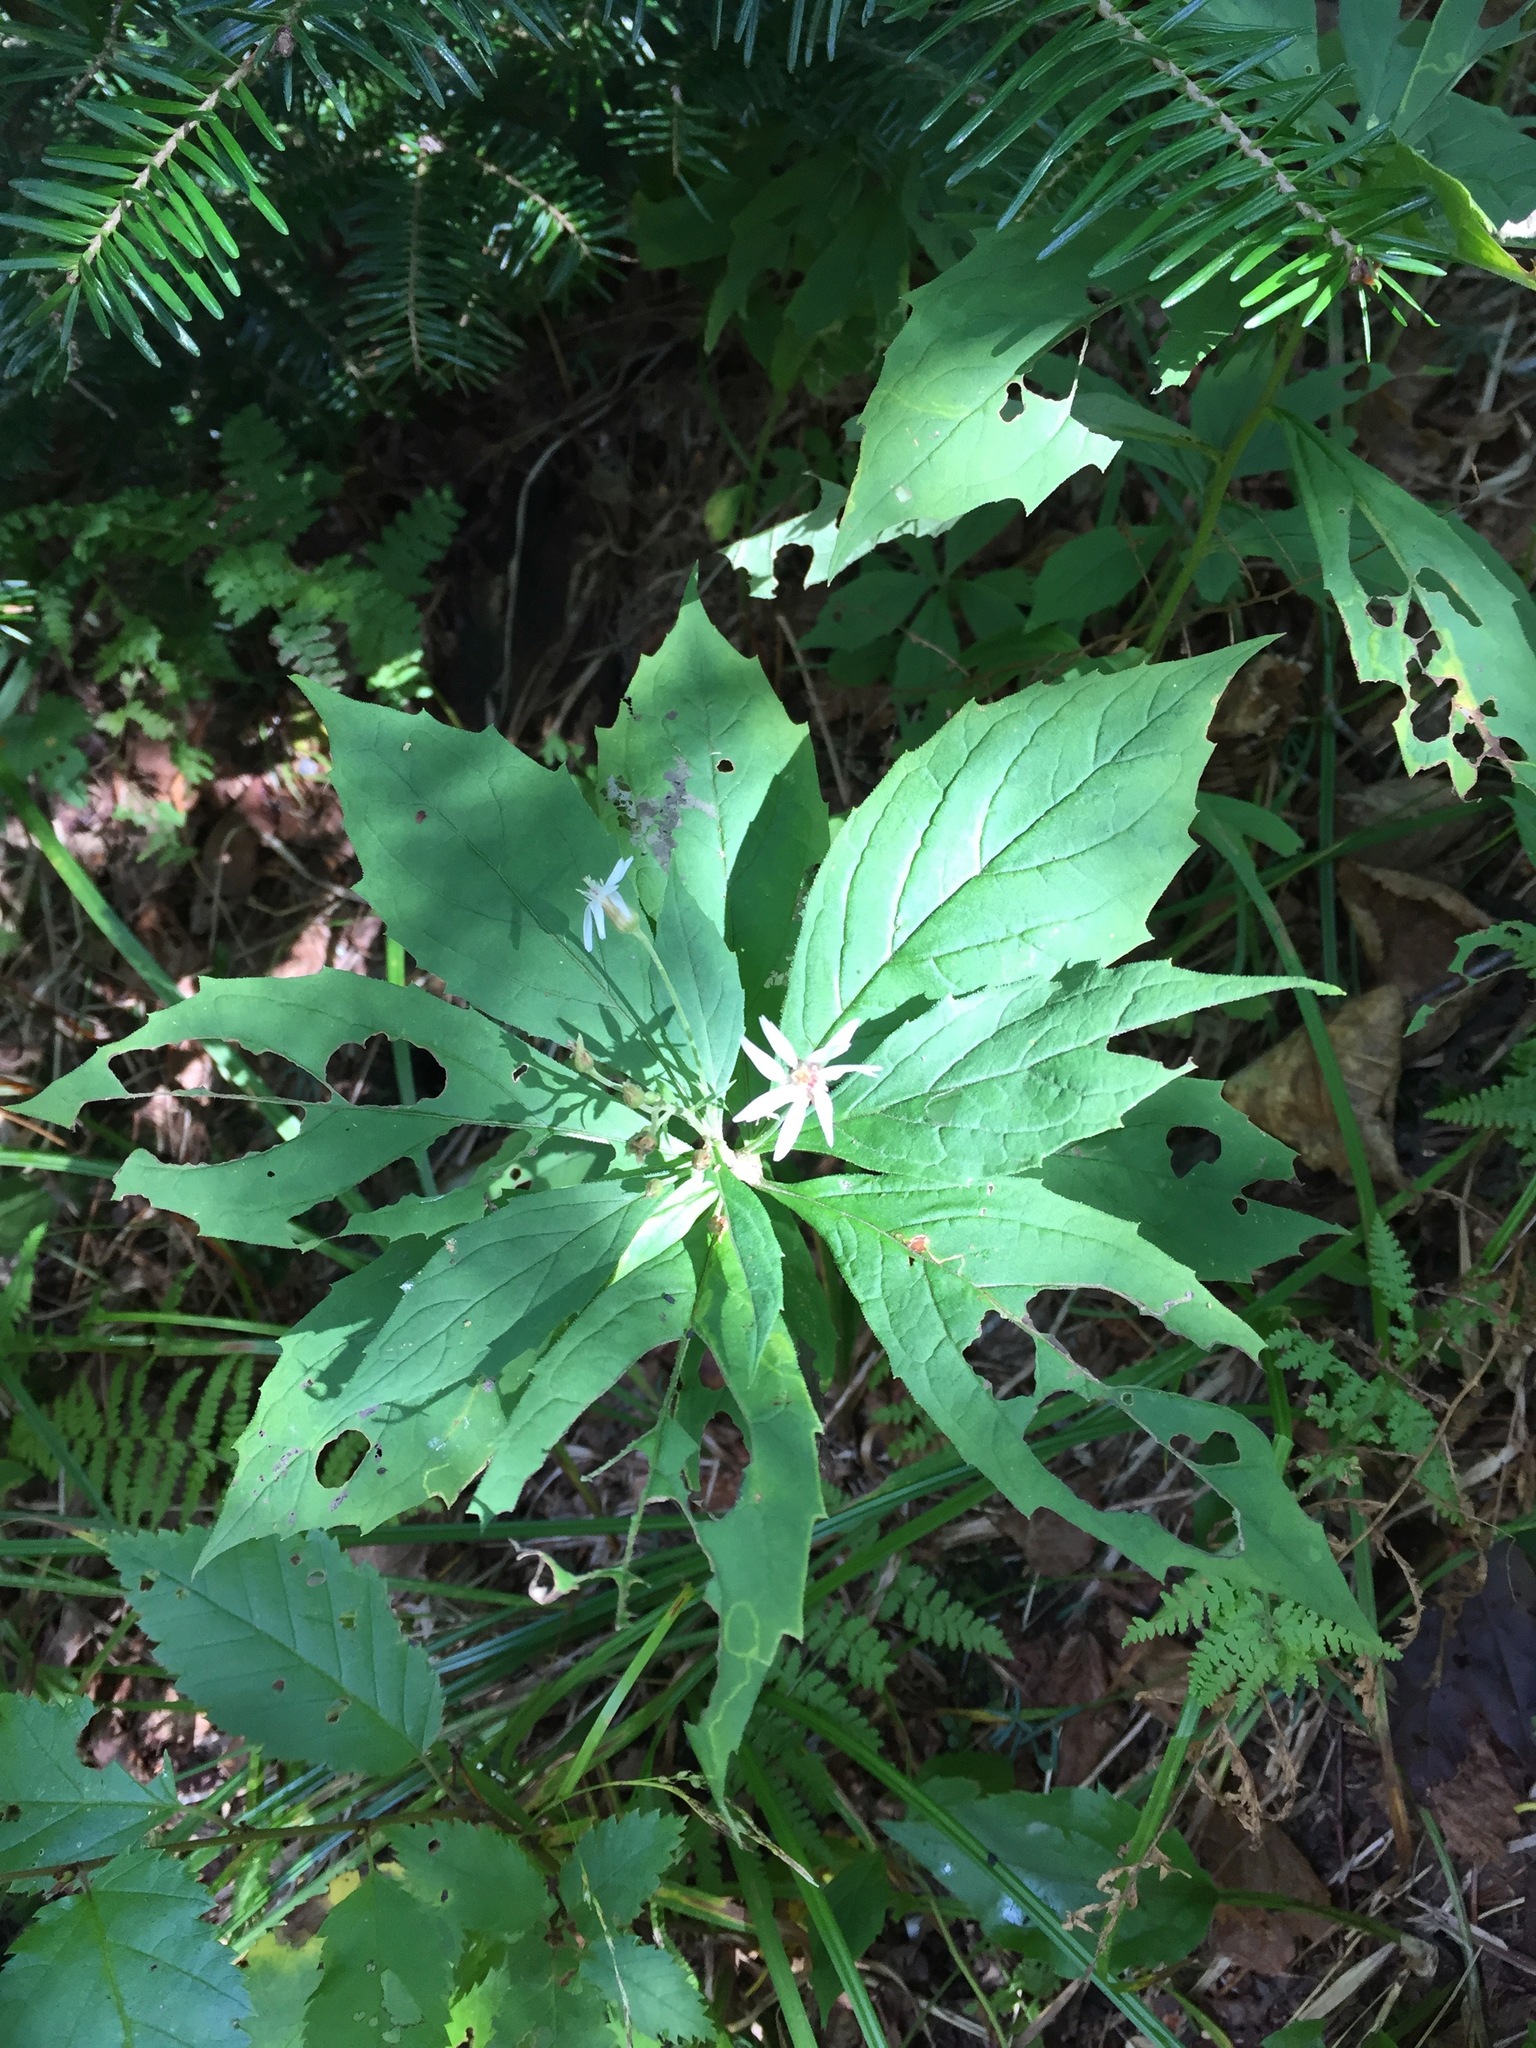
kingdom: Plantae
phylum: Tracheophyta
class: Magnoliopsida
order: Asterales
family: Asteraceae
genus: Oclemena
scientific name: Oclemena acuminata
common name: Mountain aster
